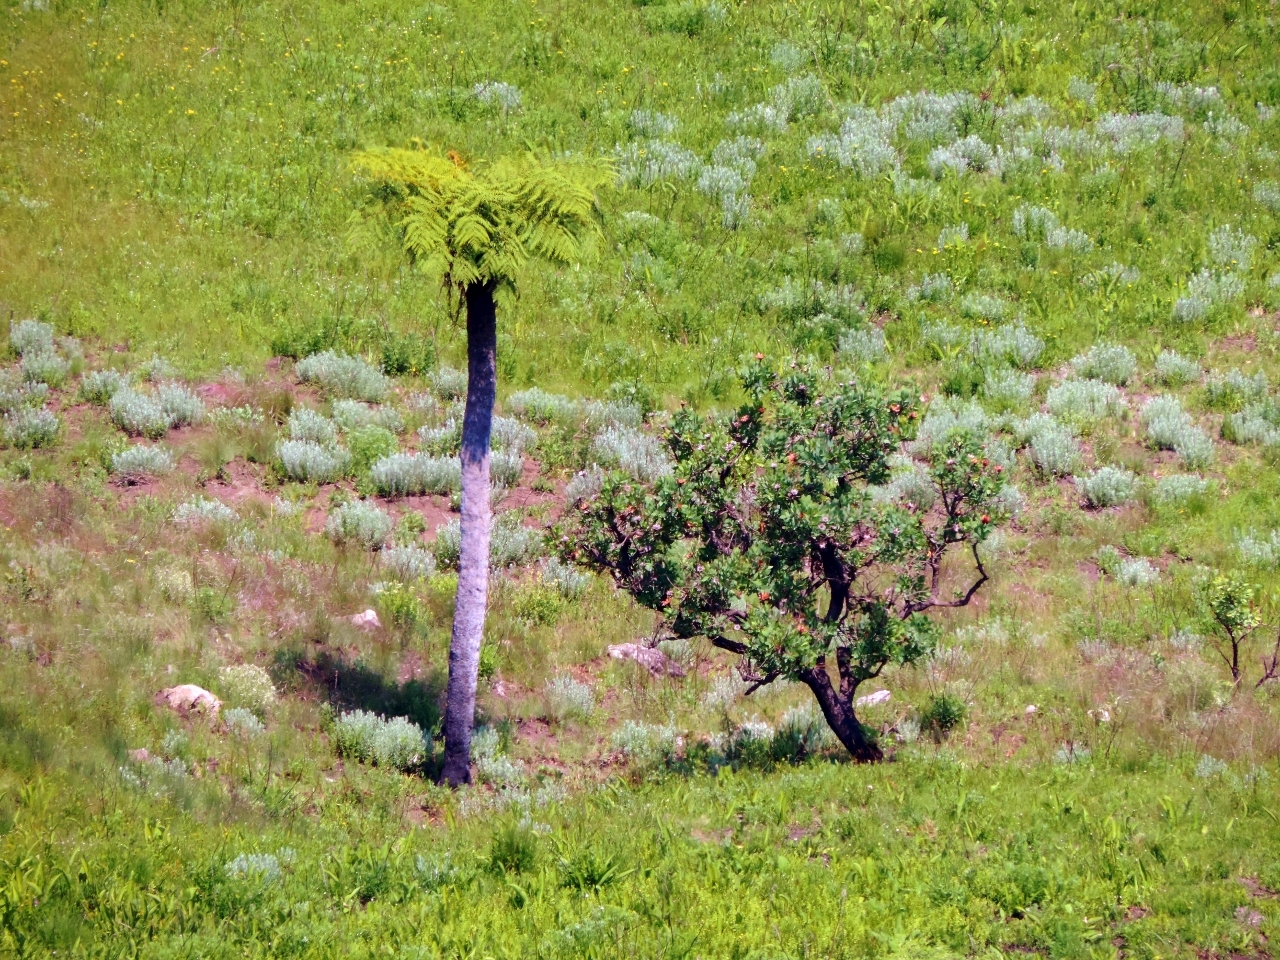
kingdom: Plantae
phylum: Tracheophyta
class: Polypodiopsida
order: Cyatheales
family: Cyatheaceae
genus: Alsophila
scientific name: Alsophila dregei
